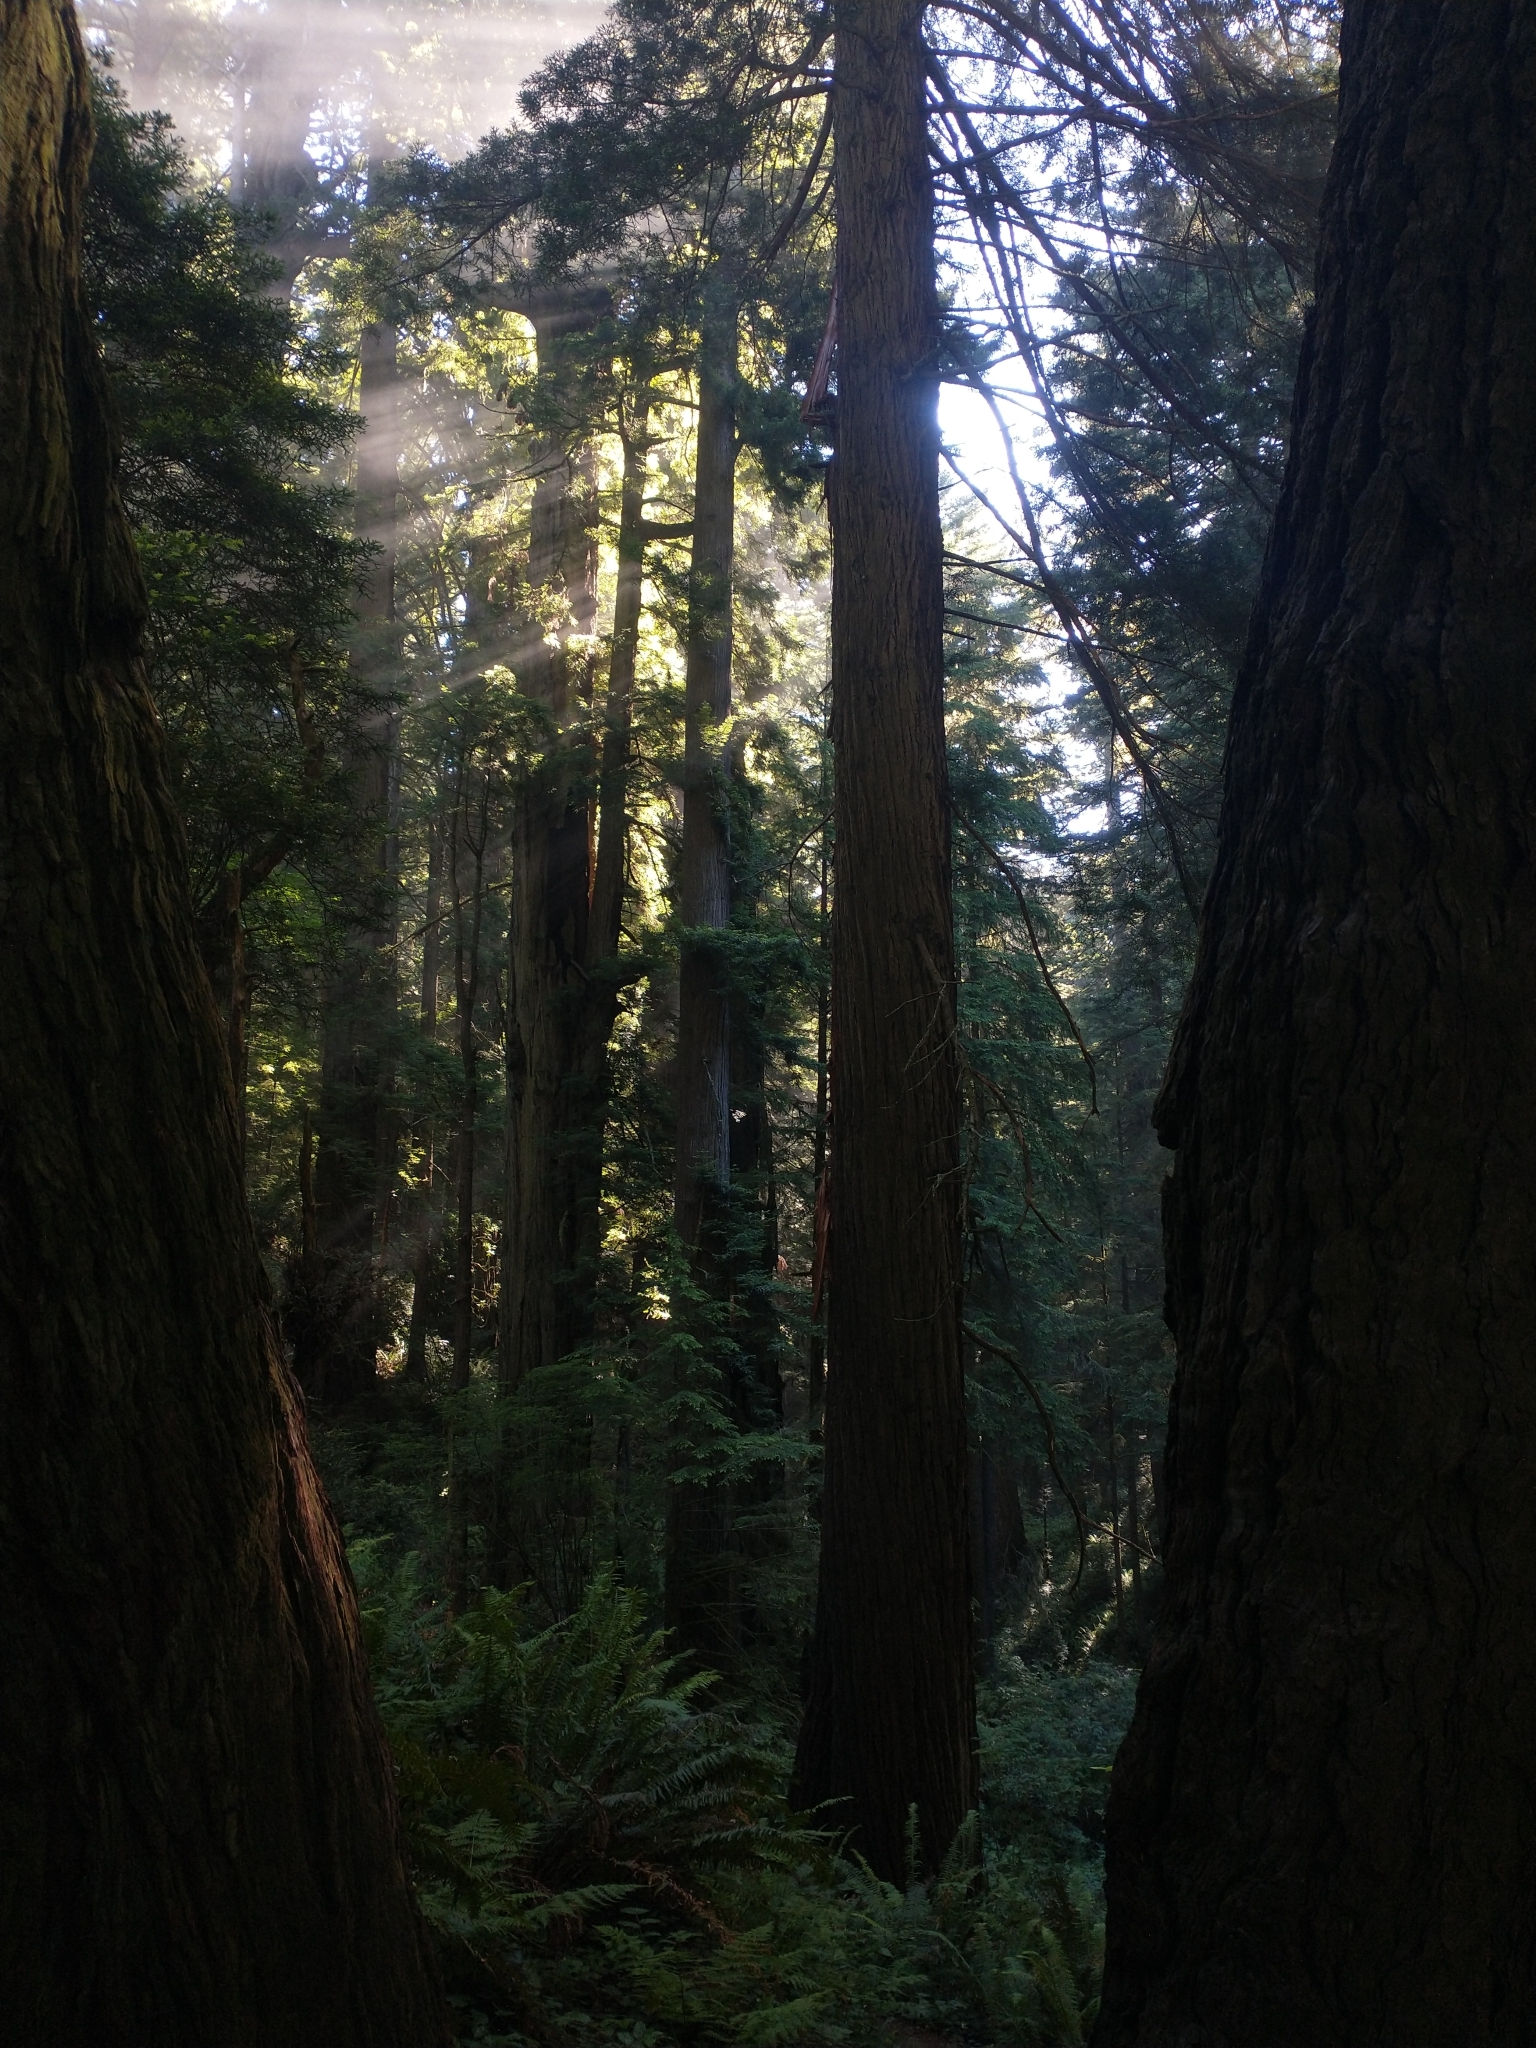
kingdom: Plantae
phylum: Tracheophyta
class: Pinopsida
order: Pinales
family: Cupressaceae
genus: Sequoia
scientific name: Sequoia sempervirens
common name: Coast redwood
